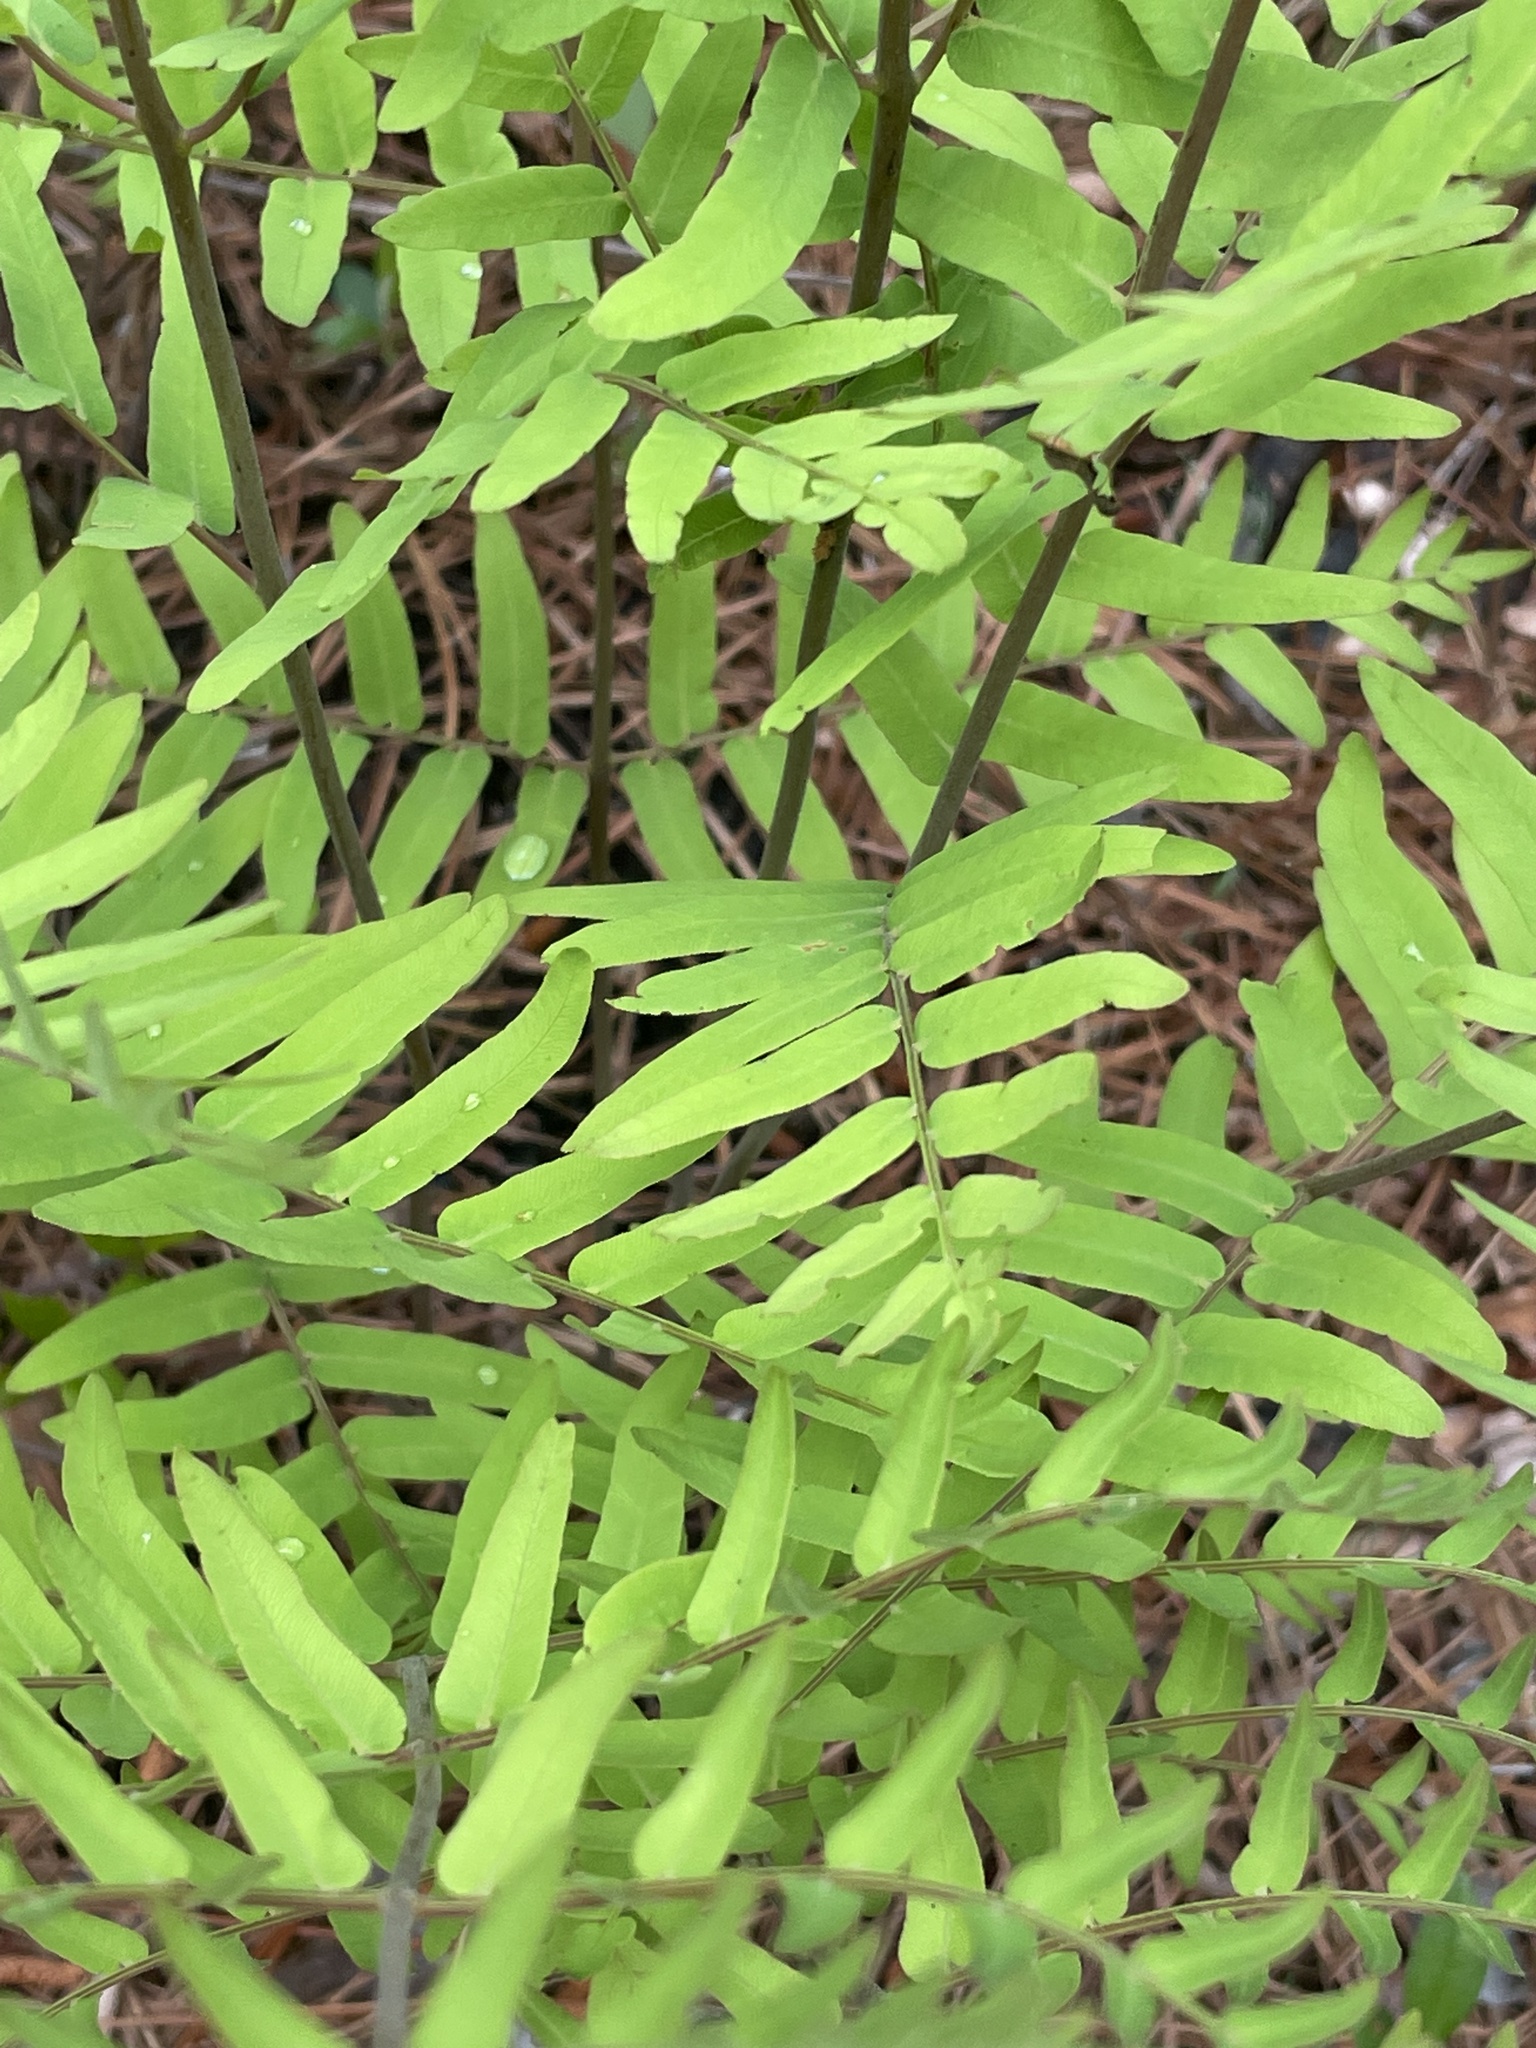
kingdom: Plantae
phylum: Tracheophyta
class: Polypodiopsida
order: Osmundales
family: Osmundaceae
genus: Osmunda
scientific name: Osmunda spectabilis
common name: American royal fern
